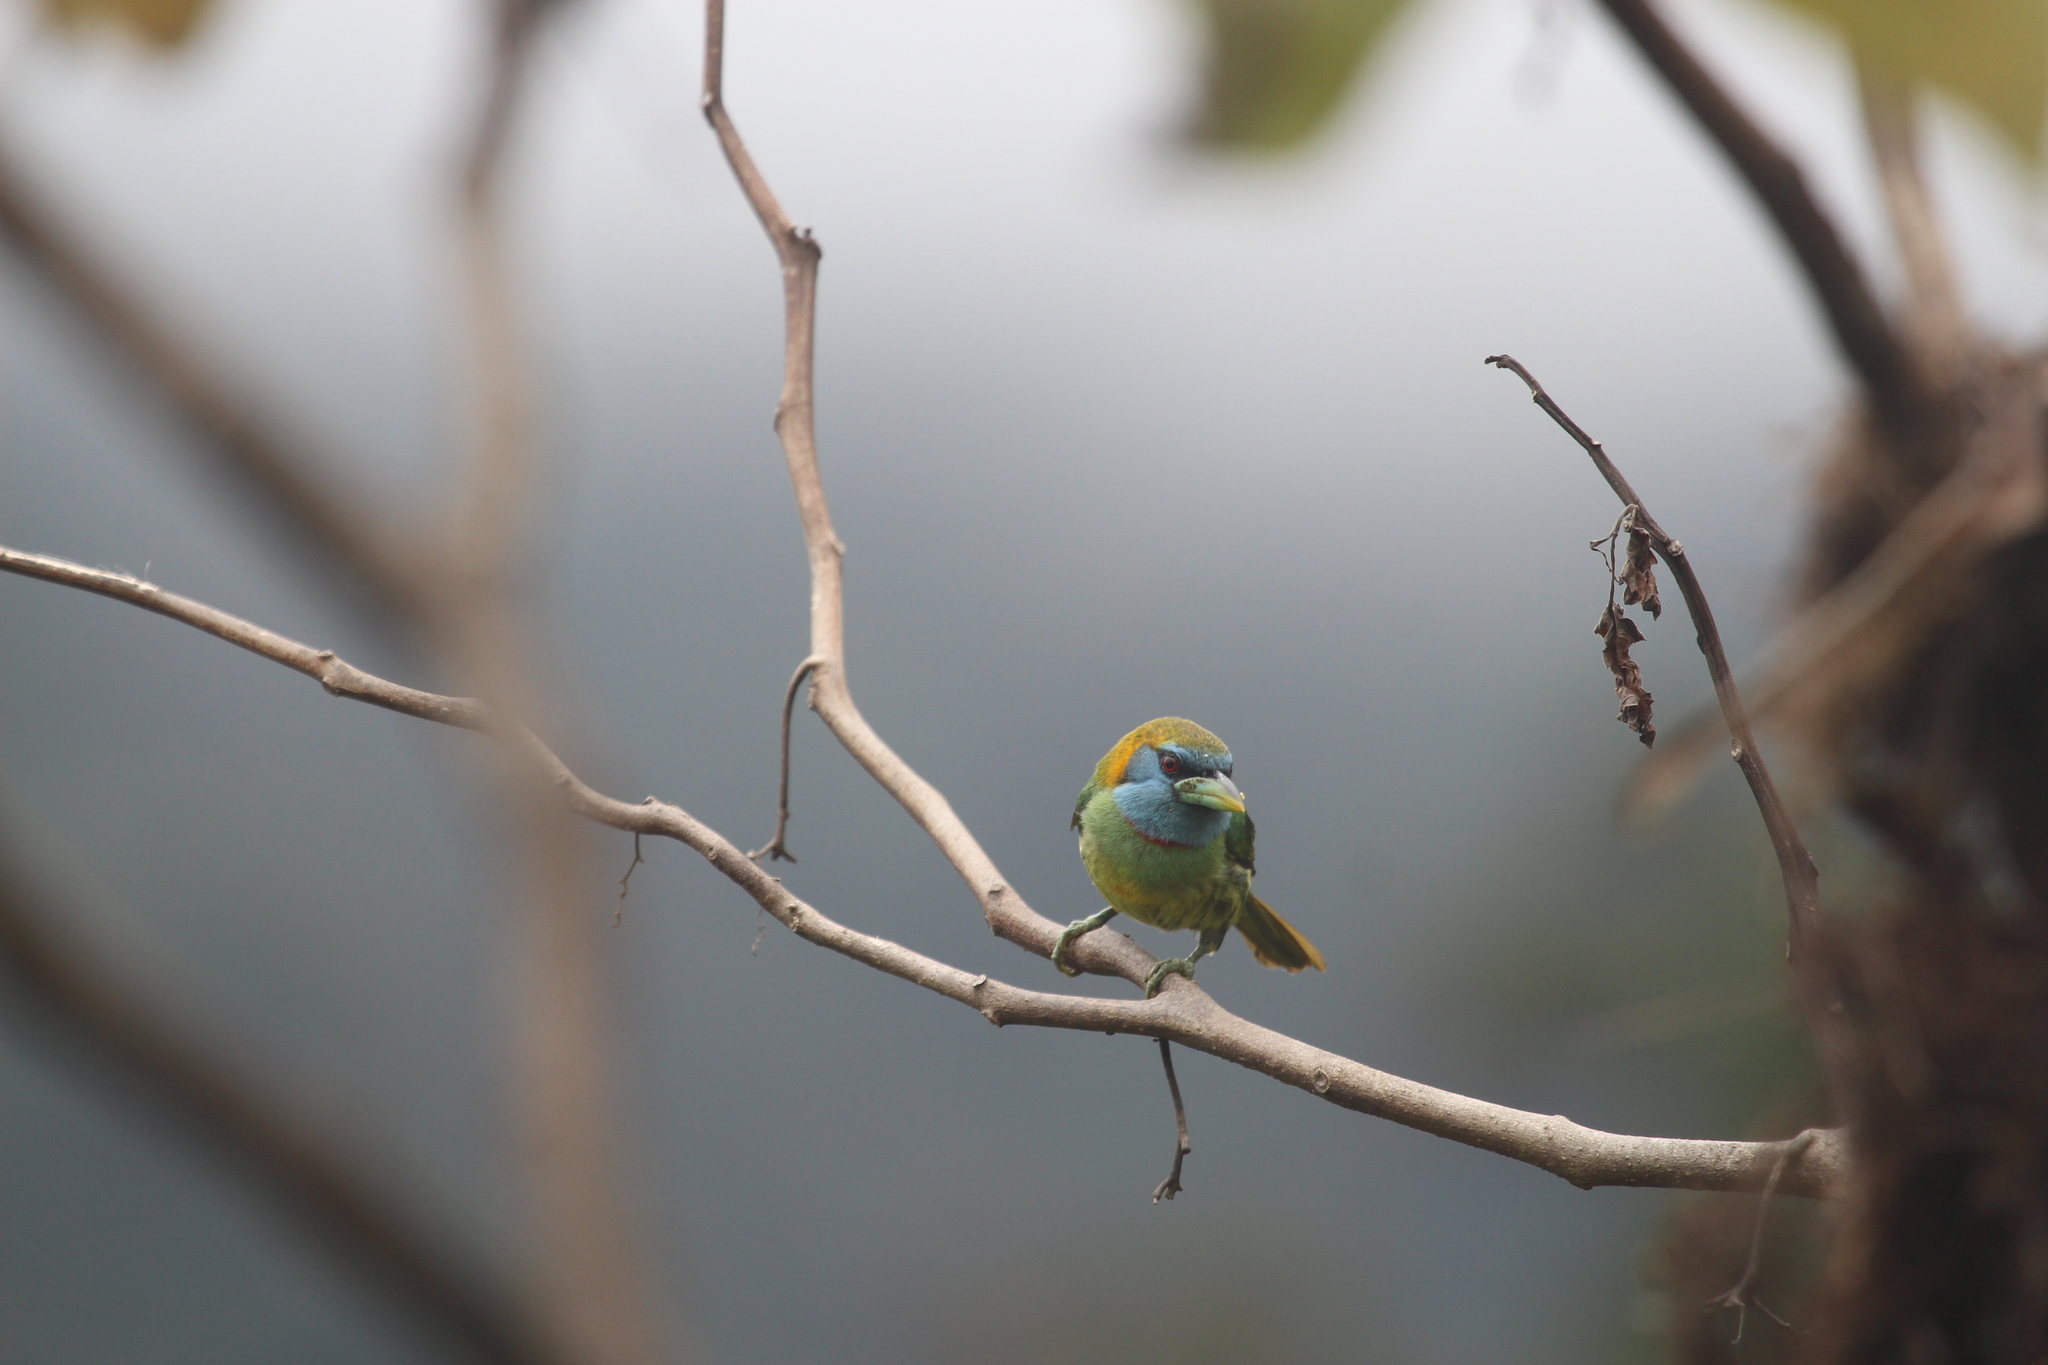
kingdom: Animalia
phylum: Chordata
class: Aves
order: Piciformes
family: Capitonidae
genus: Eubucco
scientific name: Eubucco versicolor
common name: Versicolored barbet
